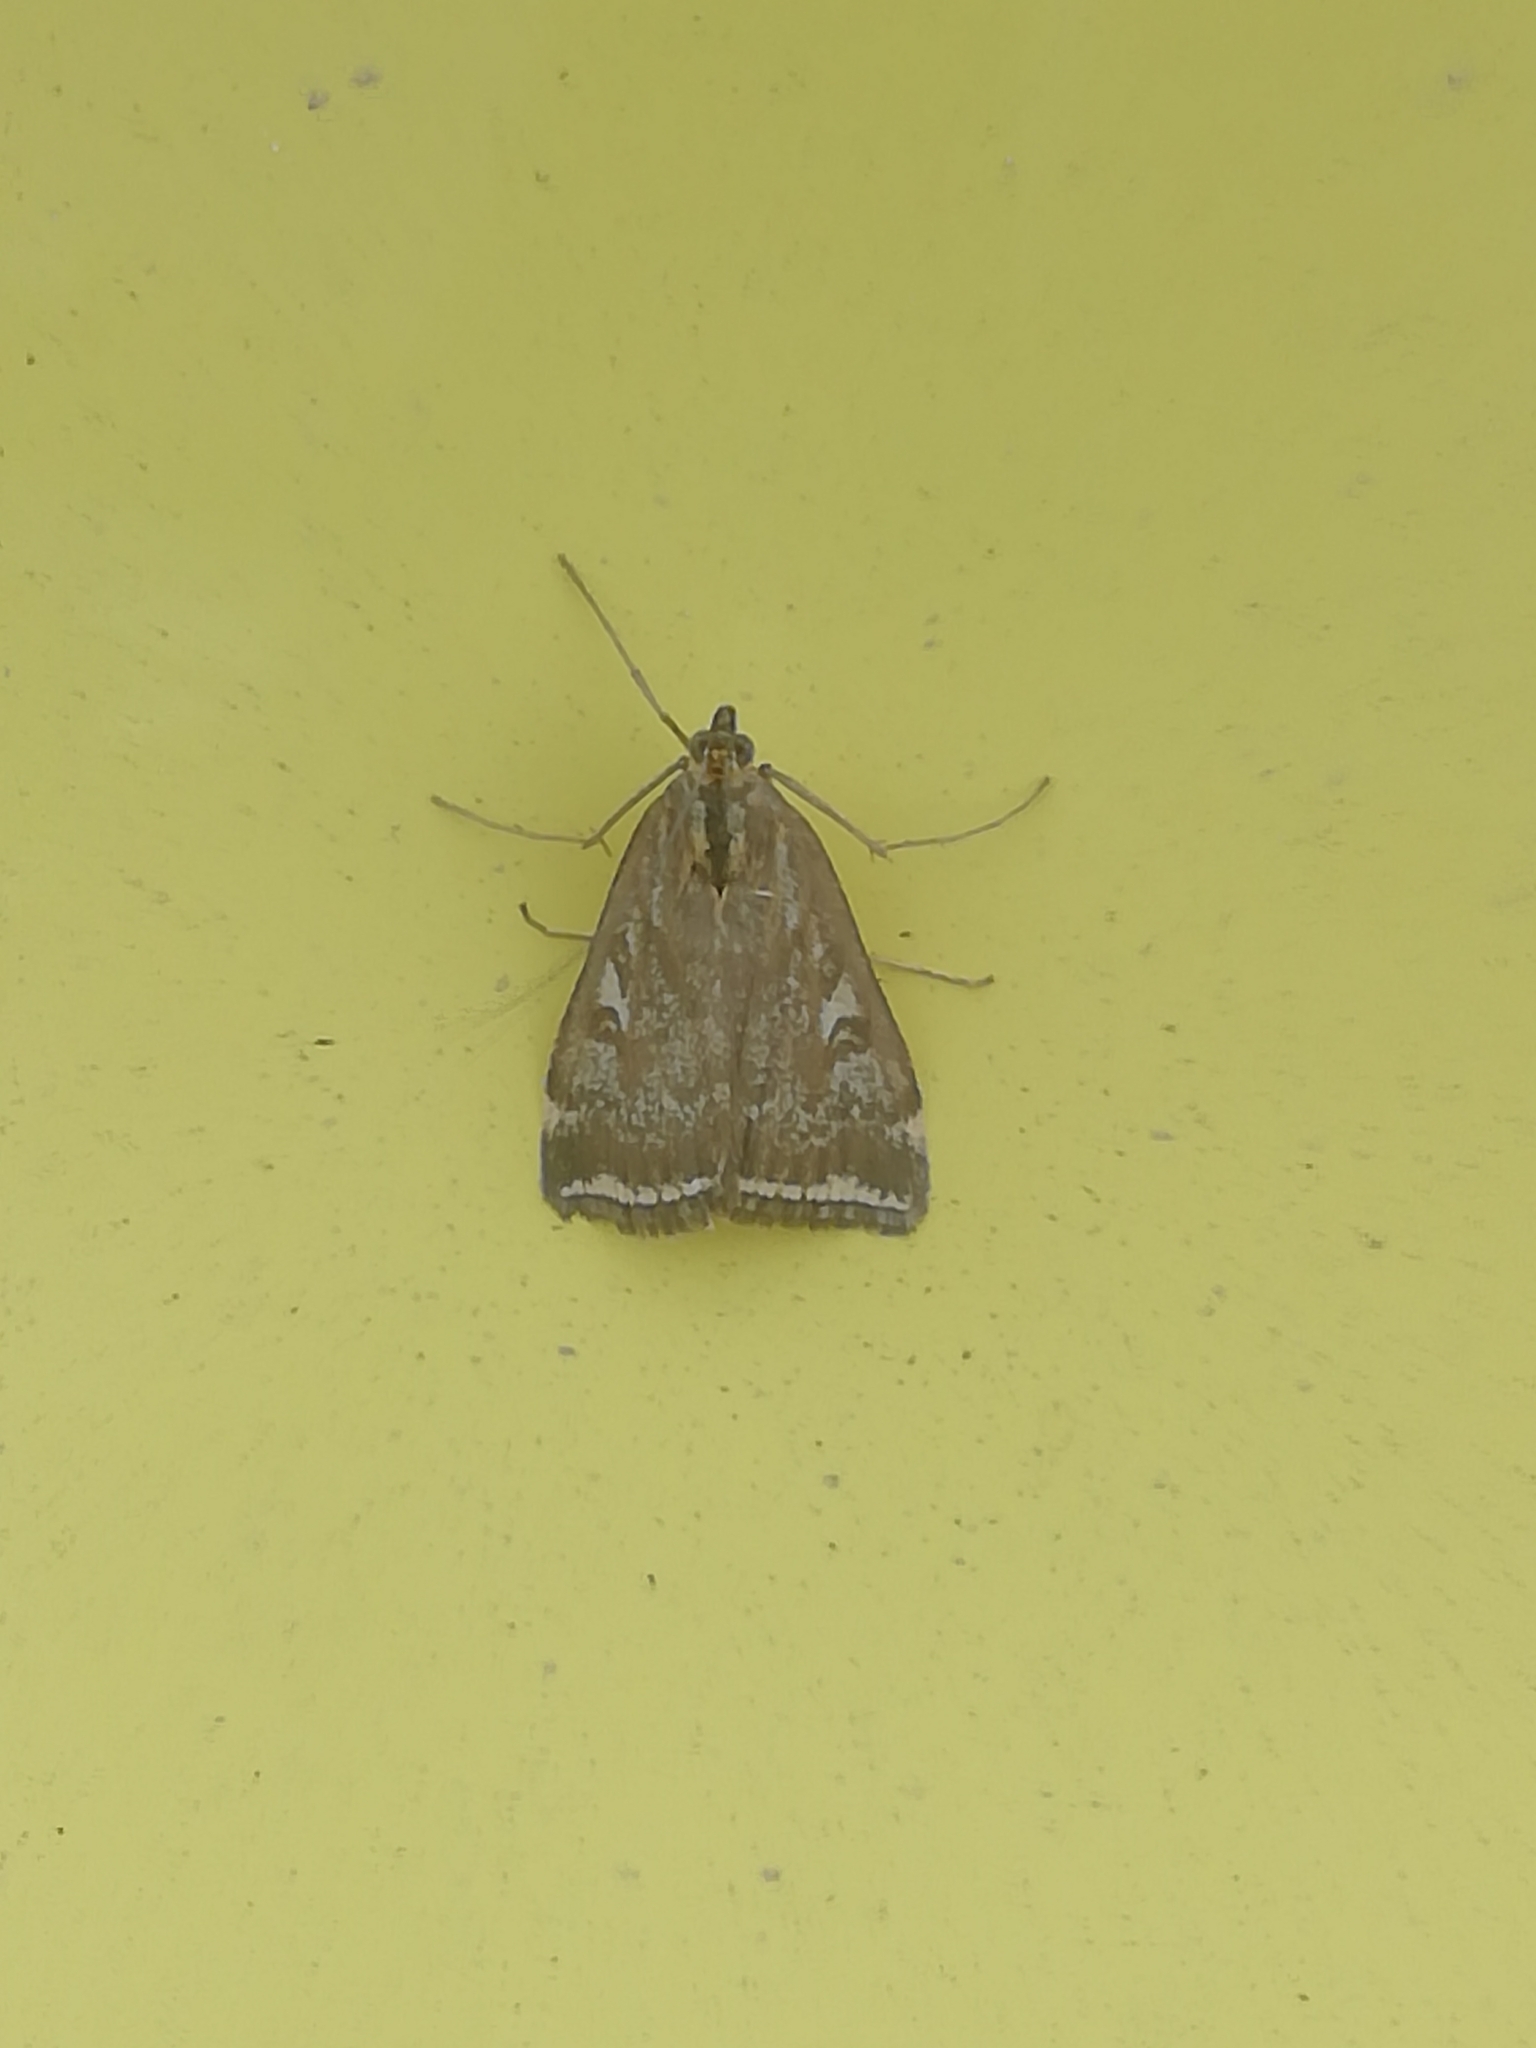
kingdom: Animalia
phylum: Arthropoda
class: Insecta
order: Lepidoptera
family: Crambidae
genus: Loxostege
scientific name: Loxostege sticticalis
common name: Crambid moth
